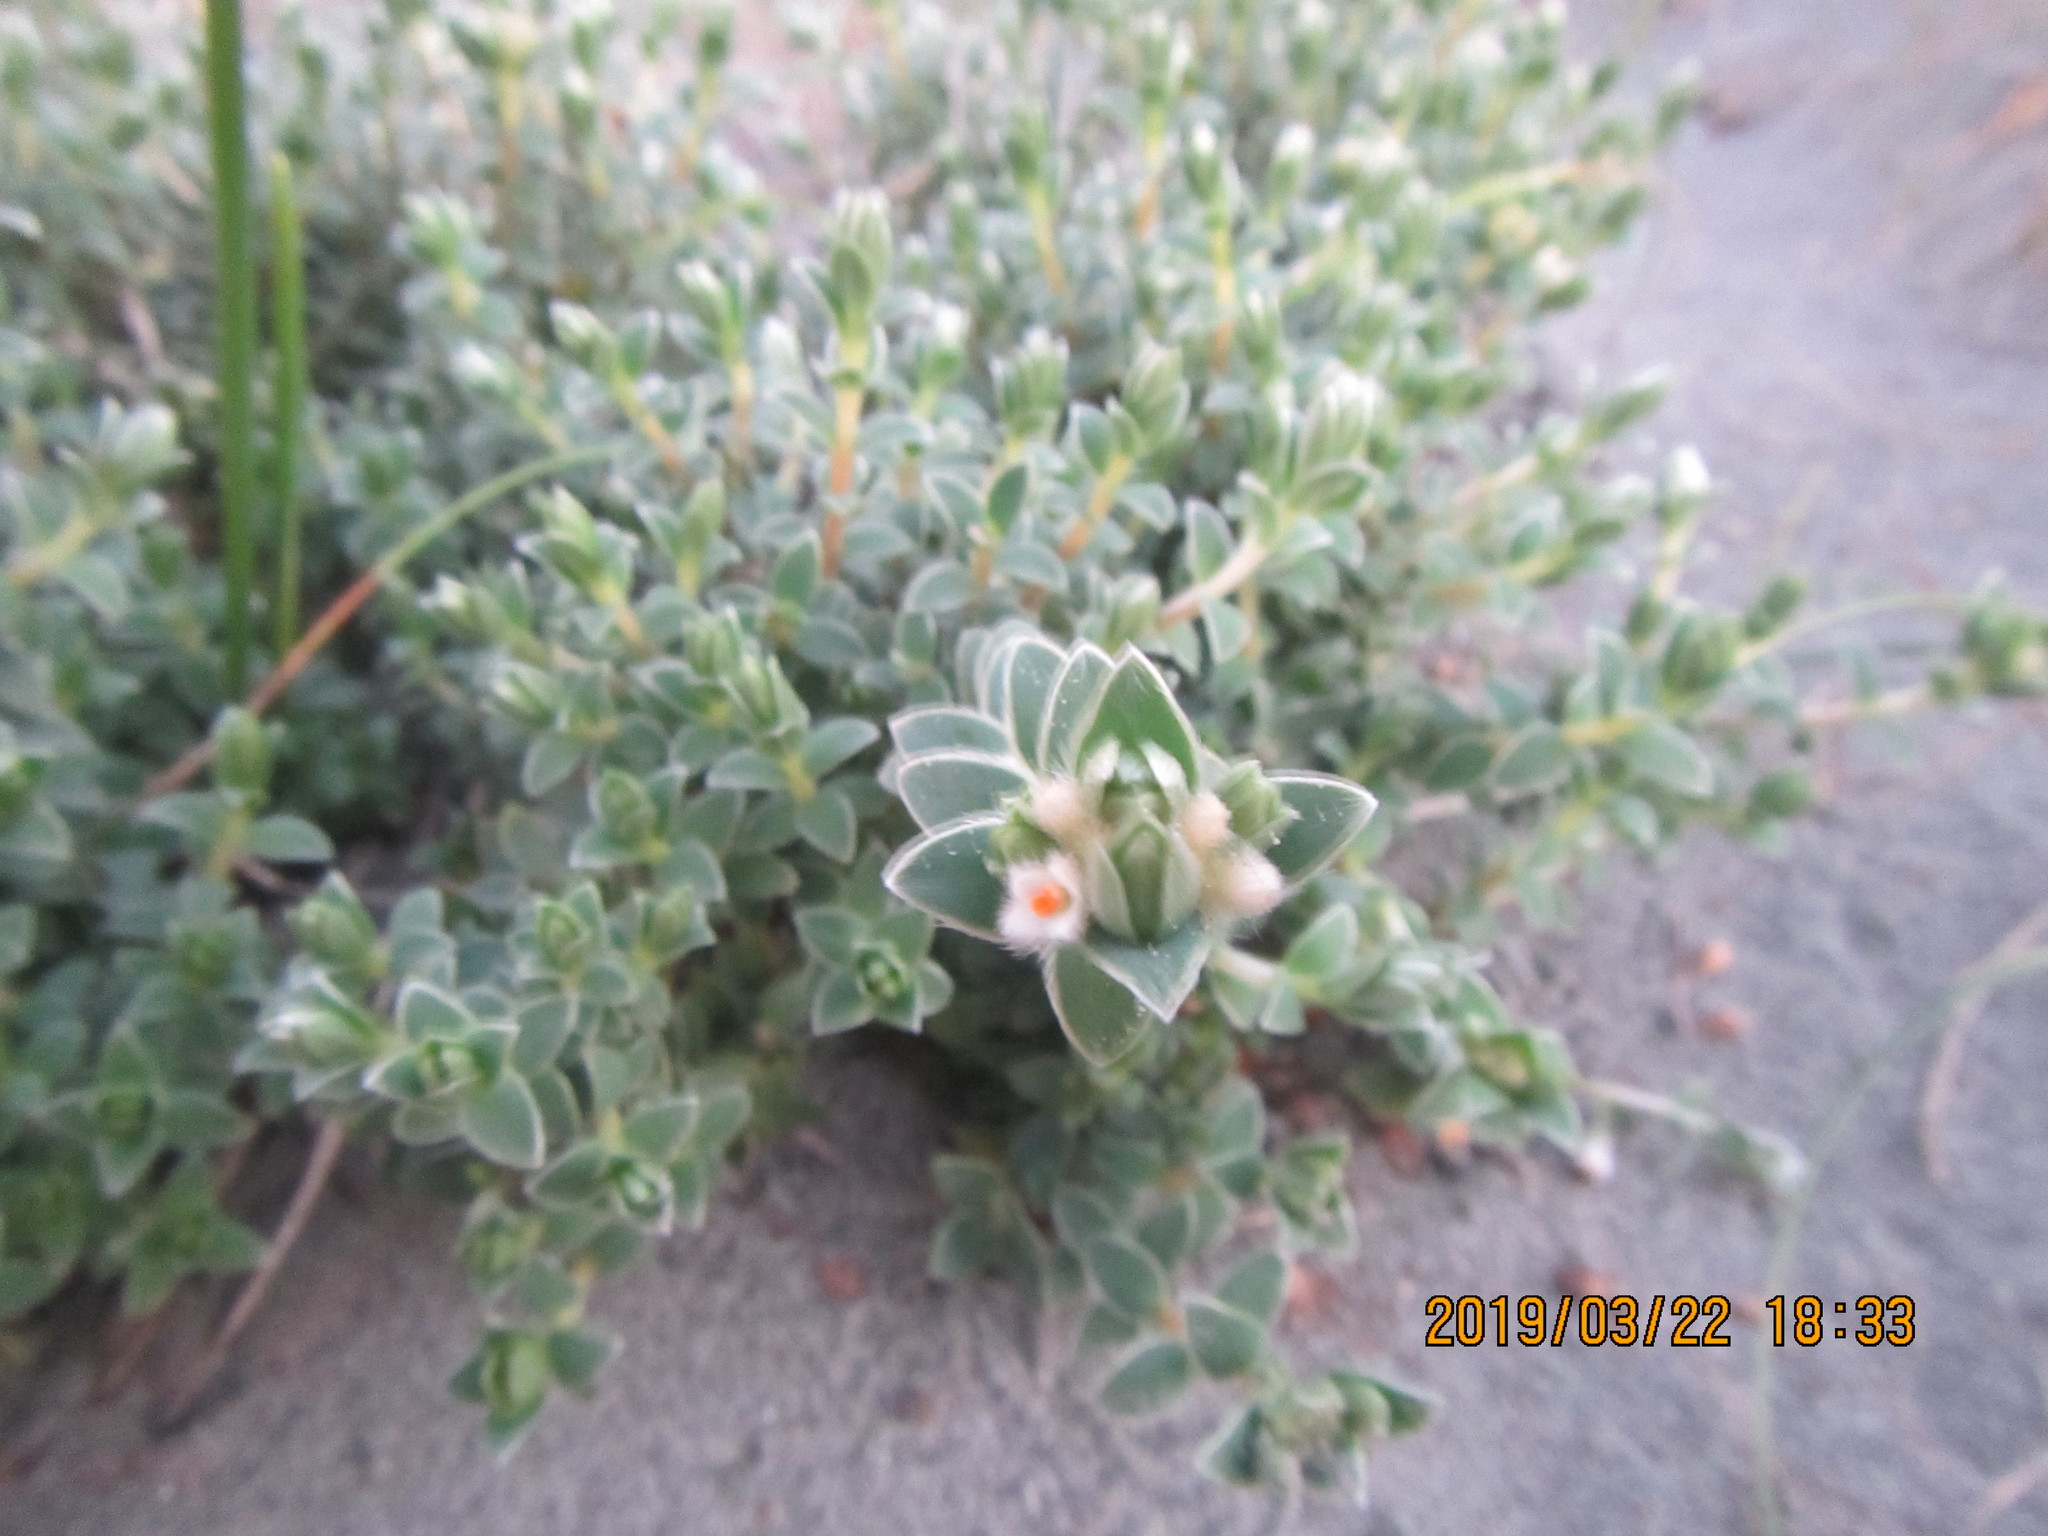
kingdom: Plantae
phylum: Tracheophyta
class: Magnoliopsida
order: Malvales
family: Thymelaeaceae
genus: Pimelea
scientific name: Pimelea villosa
